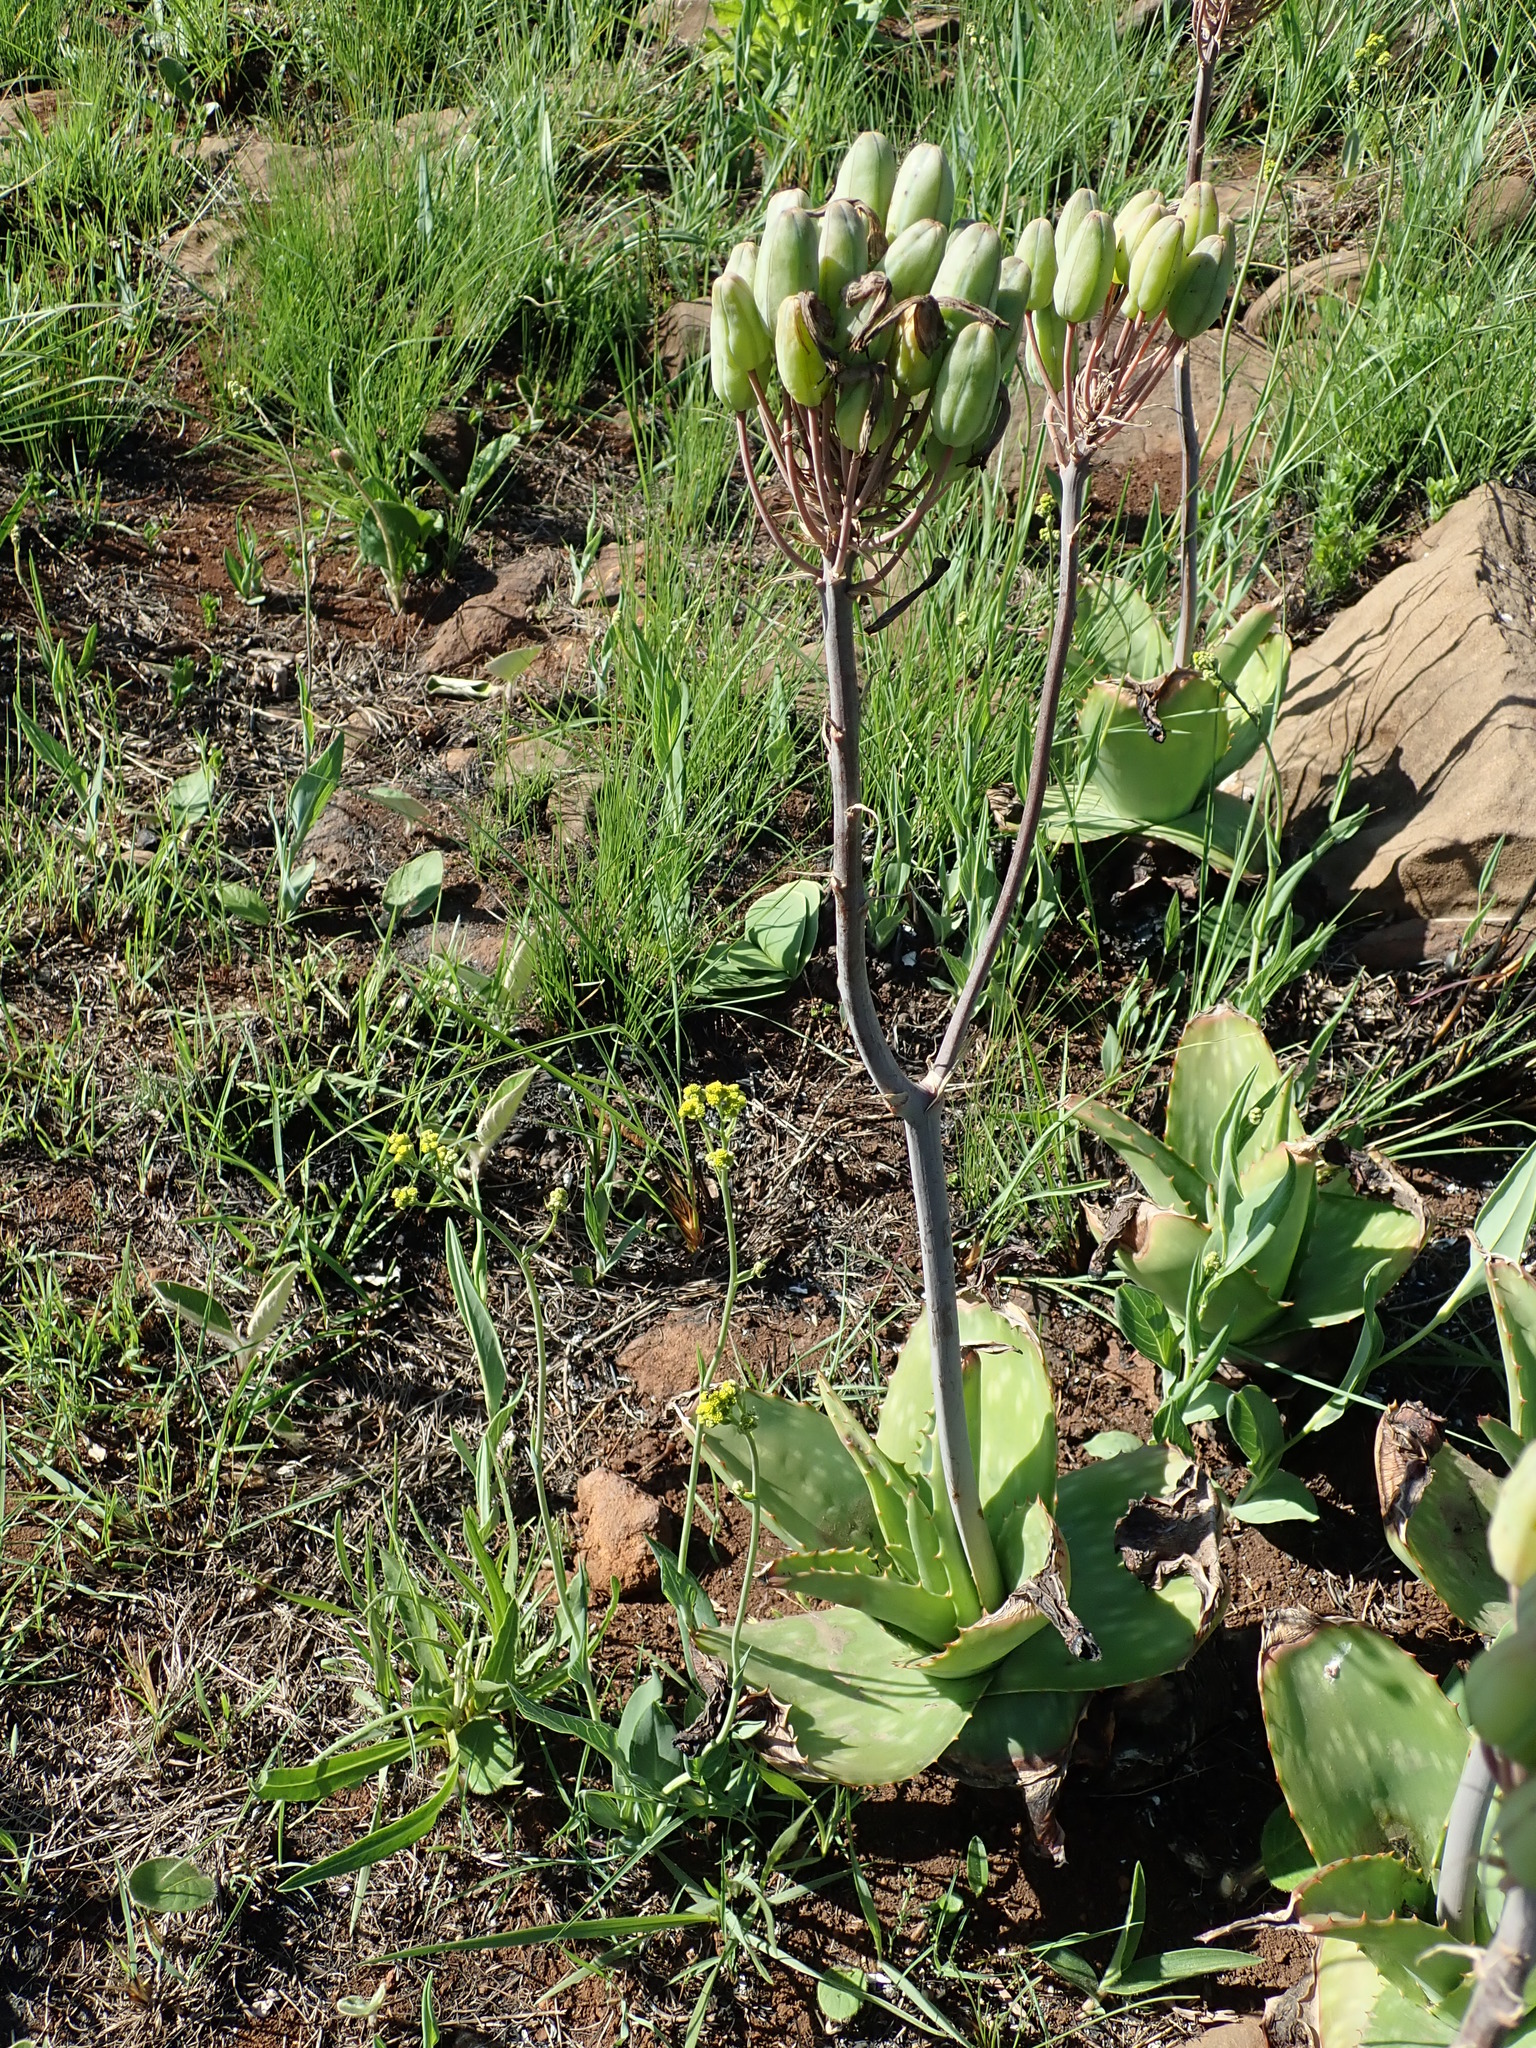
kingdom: Plantae
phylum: Tracheophyta
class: Liliopsida
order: Asparagales
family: Asphodelaceae
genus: Aloe
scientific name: Aloe maculata
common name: Broadleaf aloe
